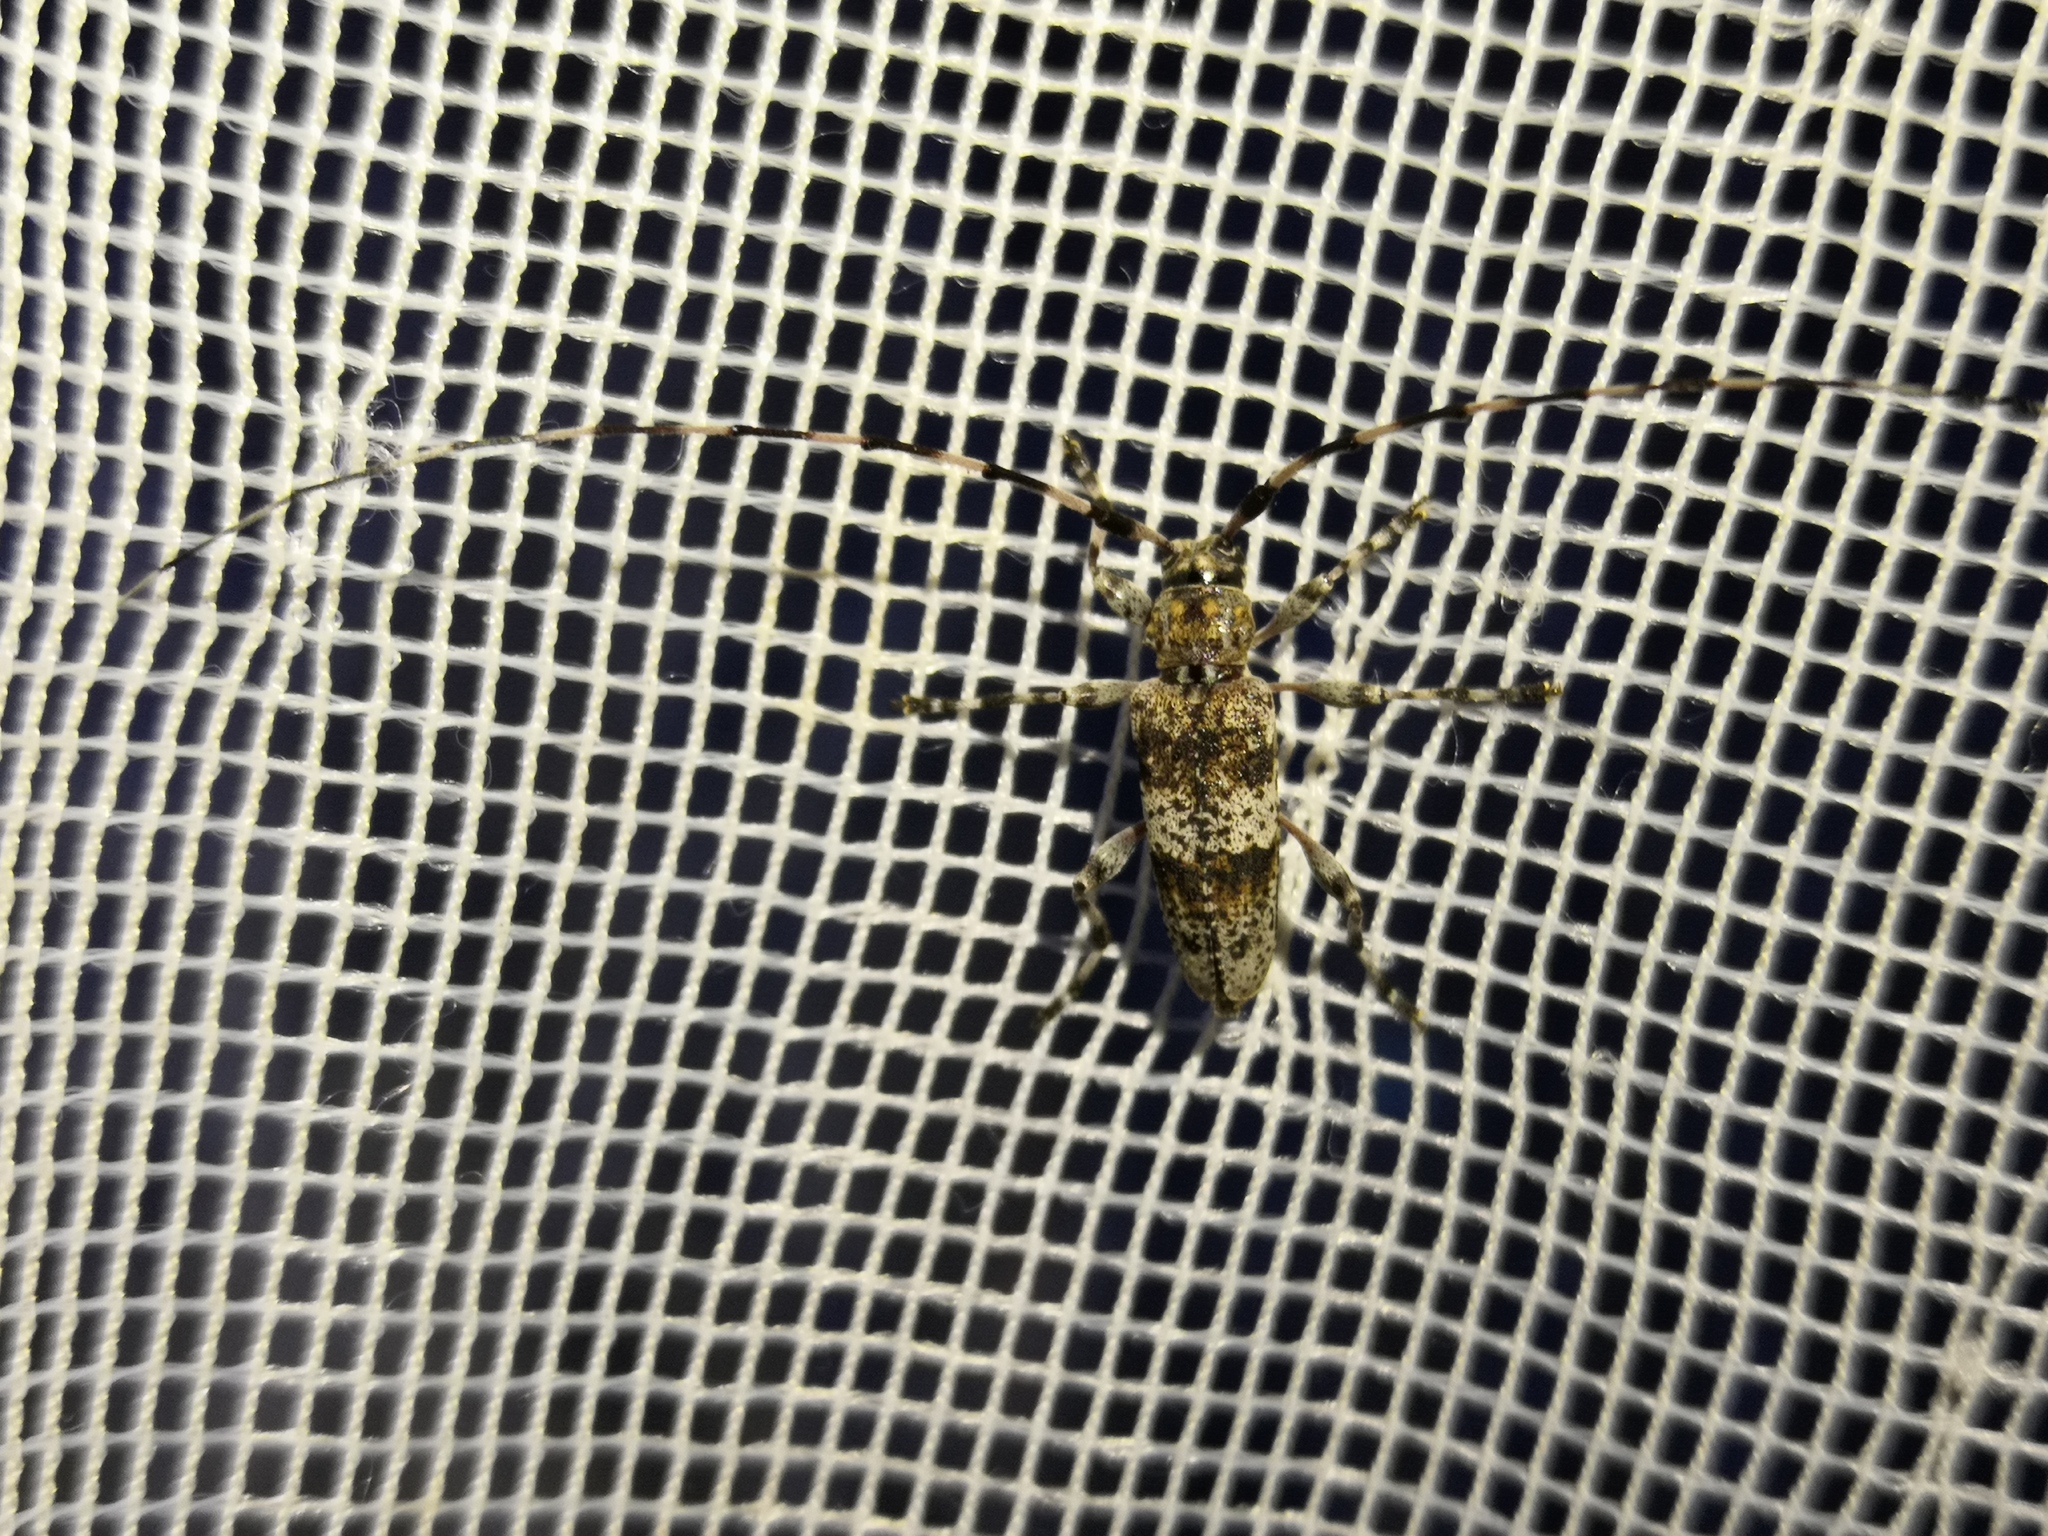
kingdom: Animalia
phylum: Arthropoda
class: Insecta
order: Coleoptera
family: Cerambycidae
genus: Acanthocinus
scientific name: Acanthocinus griseus
